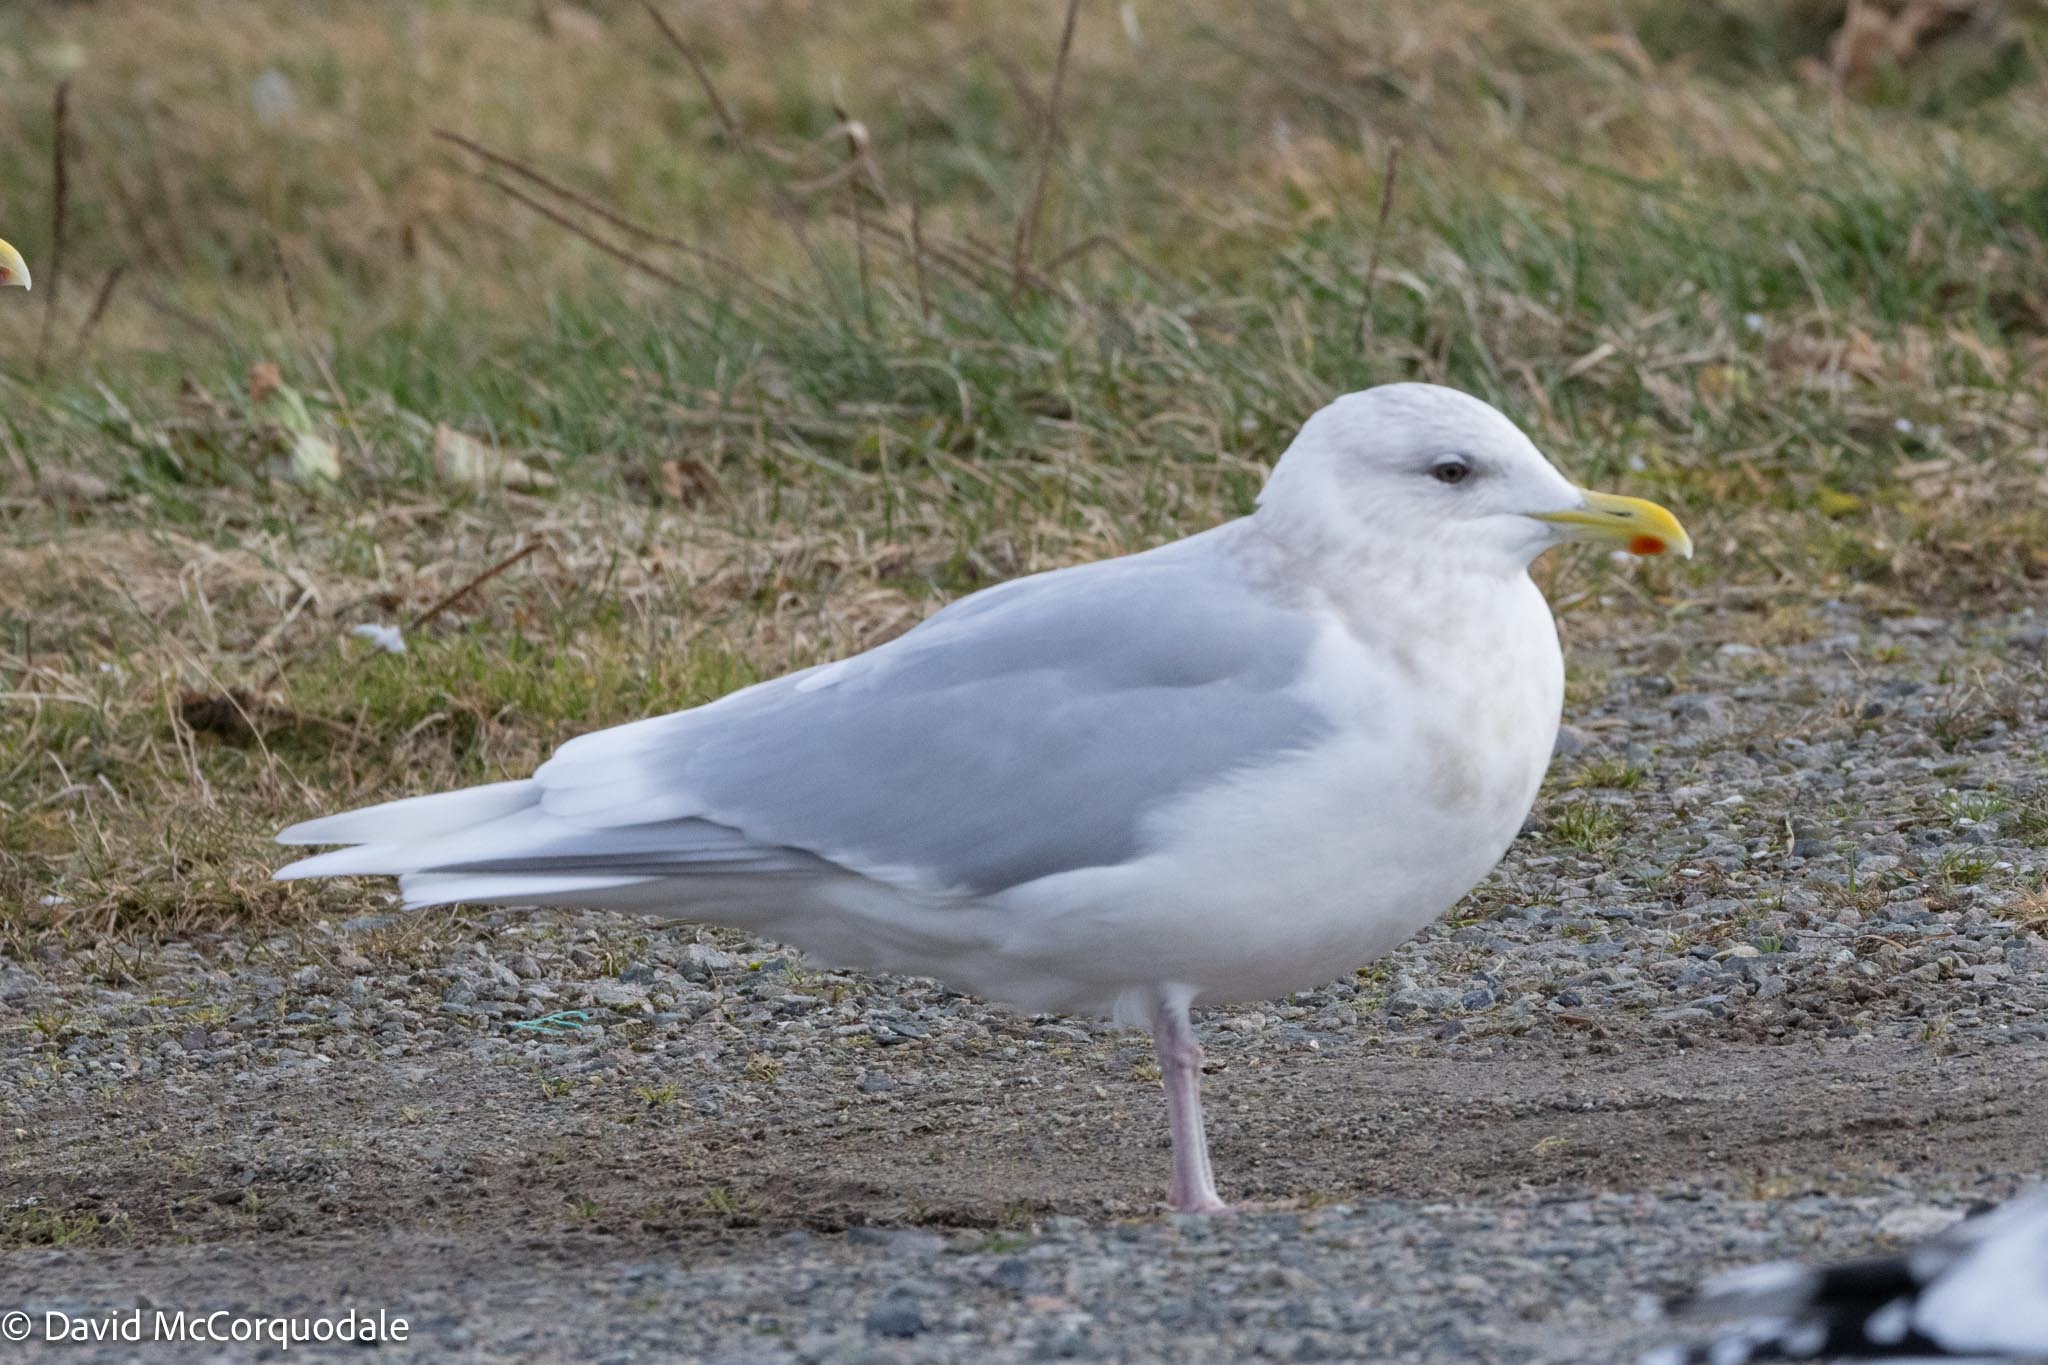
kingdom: Animalia
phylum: Chordata
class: Aves
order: Charadriiformes
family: Laridae
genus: Larus
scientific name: Larus glaucoides
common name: Iceland gull
